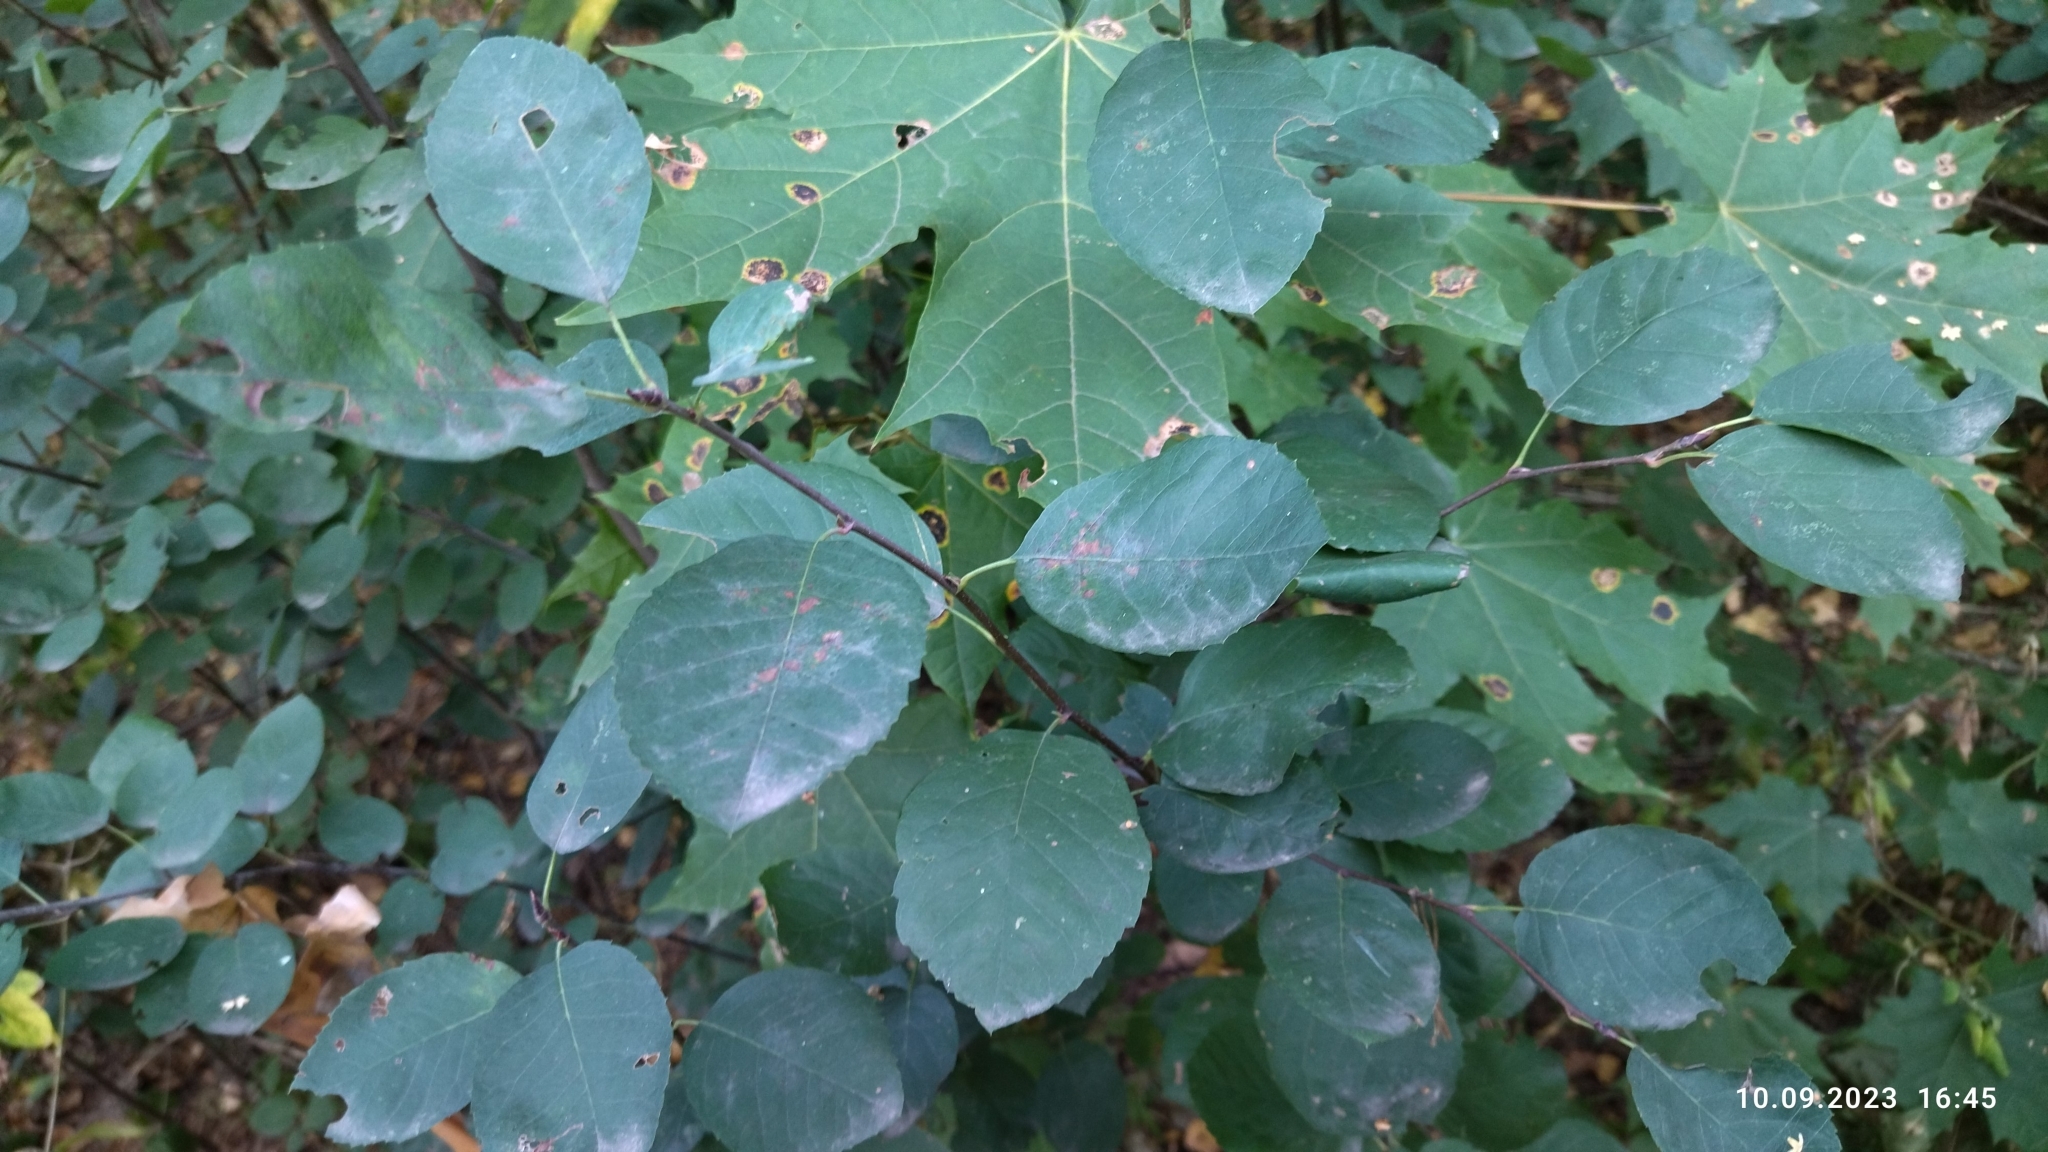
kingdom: Plantae
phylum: Tracheophyta
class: Magnoliopsida
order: Rosales
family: Rosaceae
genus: Amelanchier
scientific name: Amelanchier
